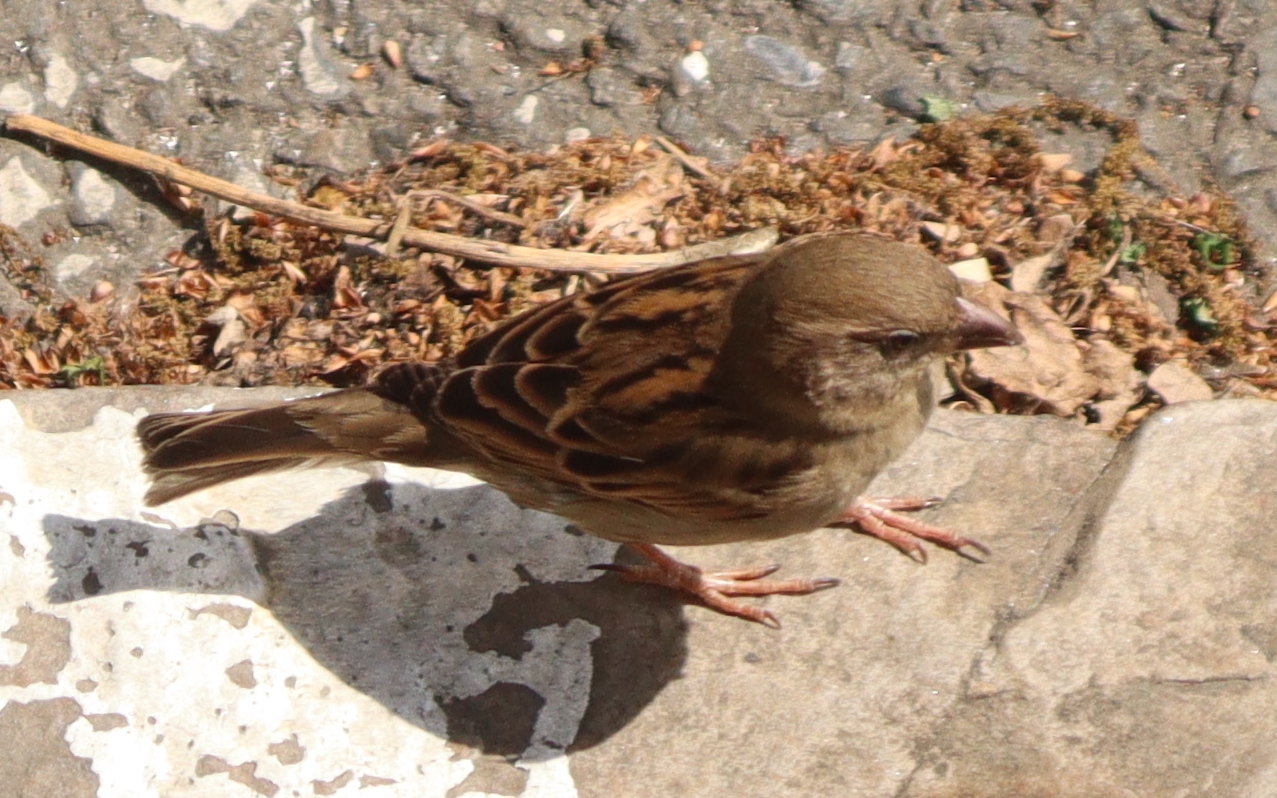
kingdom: Animalia
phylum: Chordata
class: Aves
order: Passeriformes
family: Passeridae
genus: Passer
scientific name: Passer domesticus
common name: House sparrow
